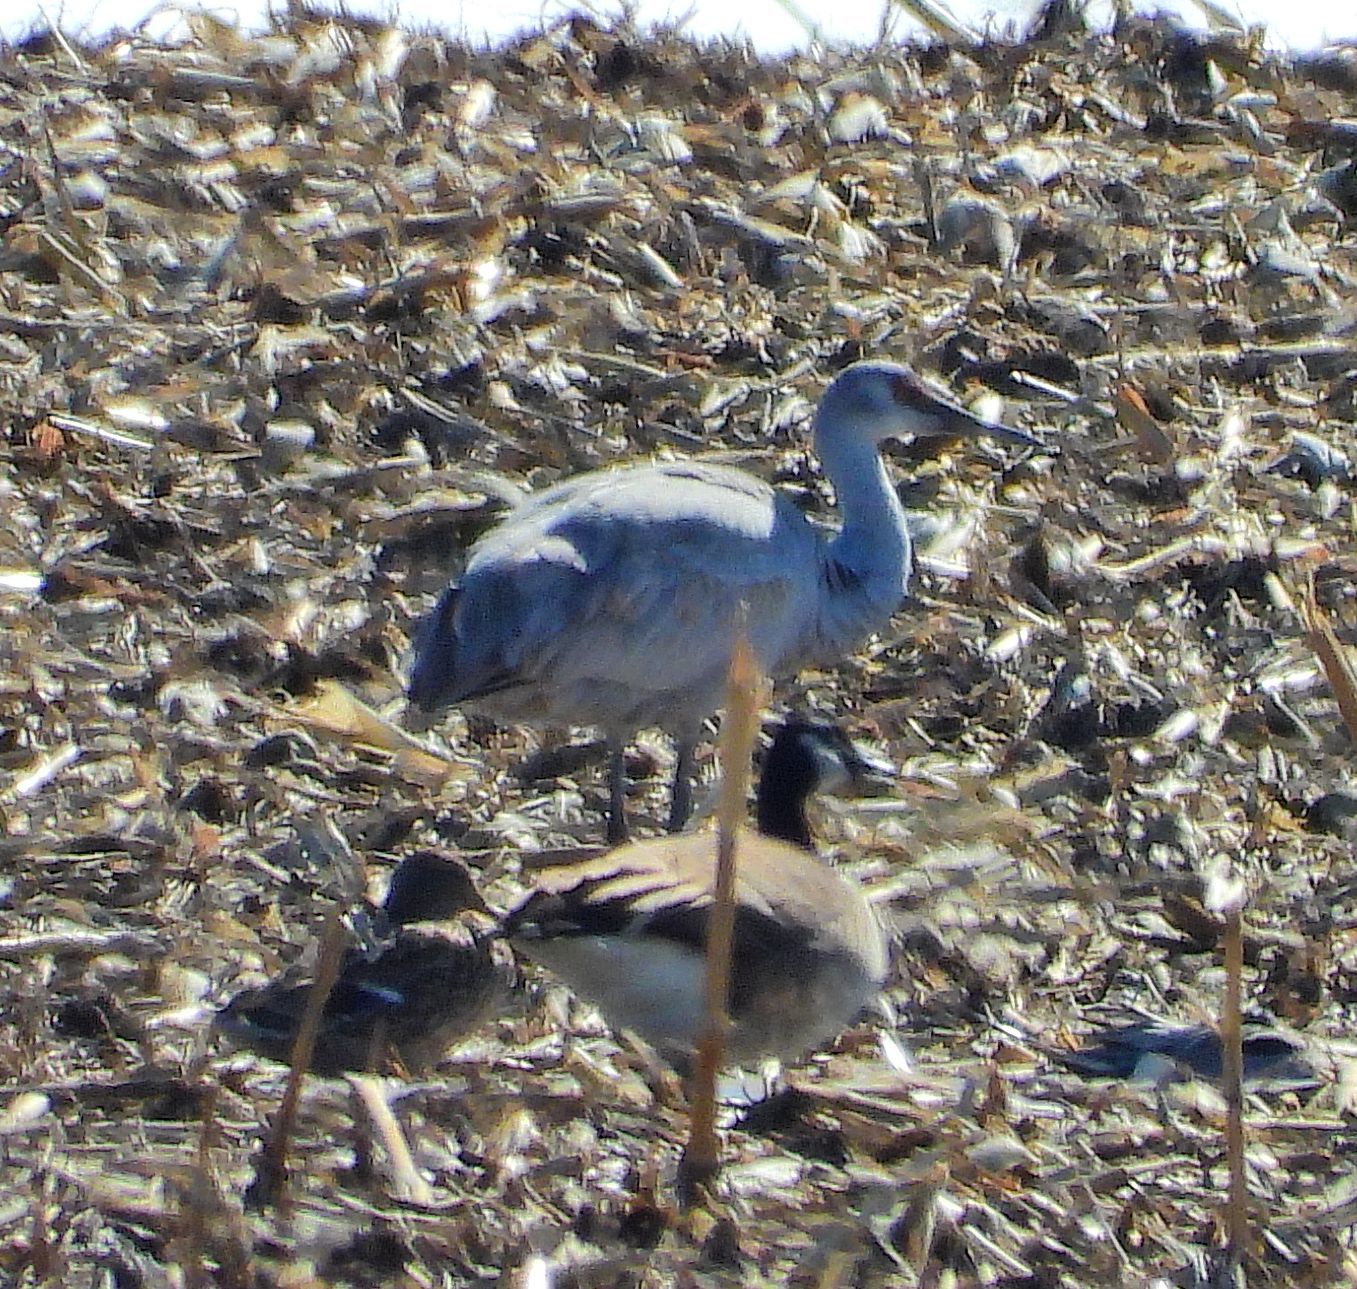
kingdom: Animalia
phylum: Chordata
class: Aves
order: Gruiformes
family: Gruidae
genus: Grus
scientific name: Grus canadensis
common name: Sandhill crane
